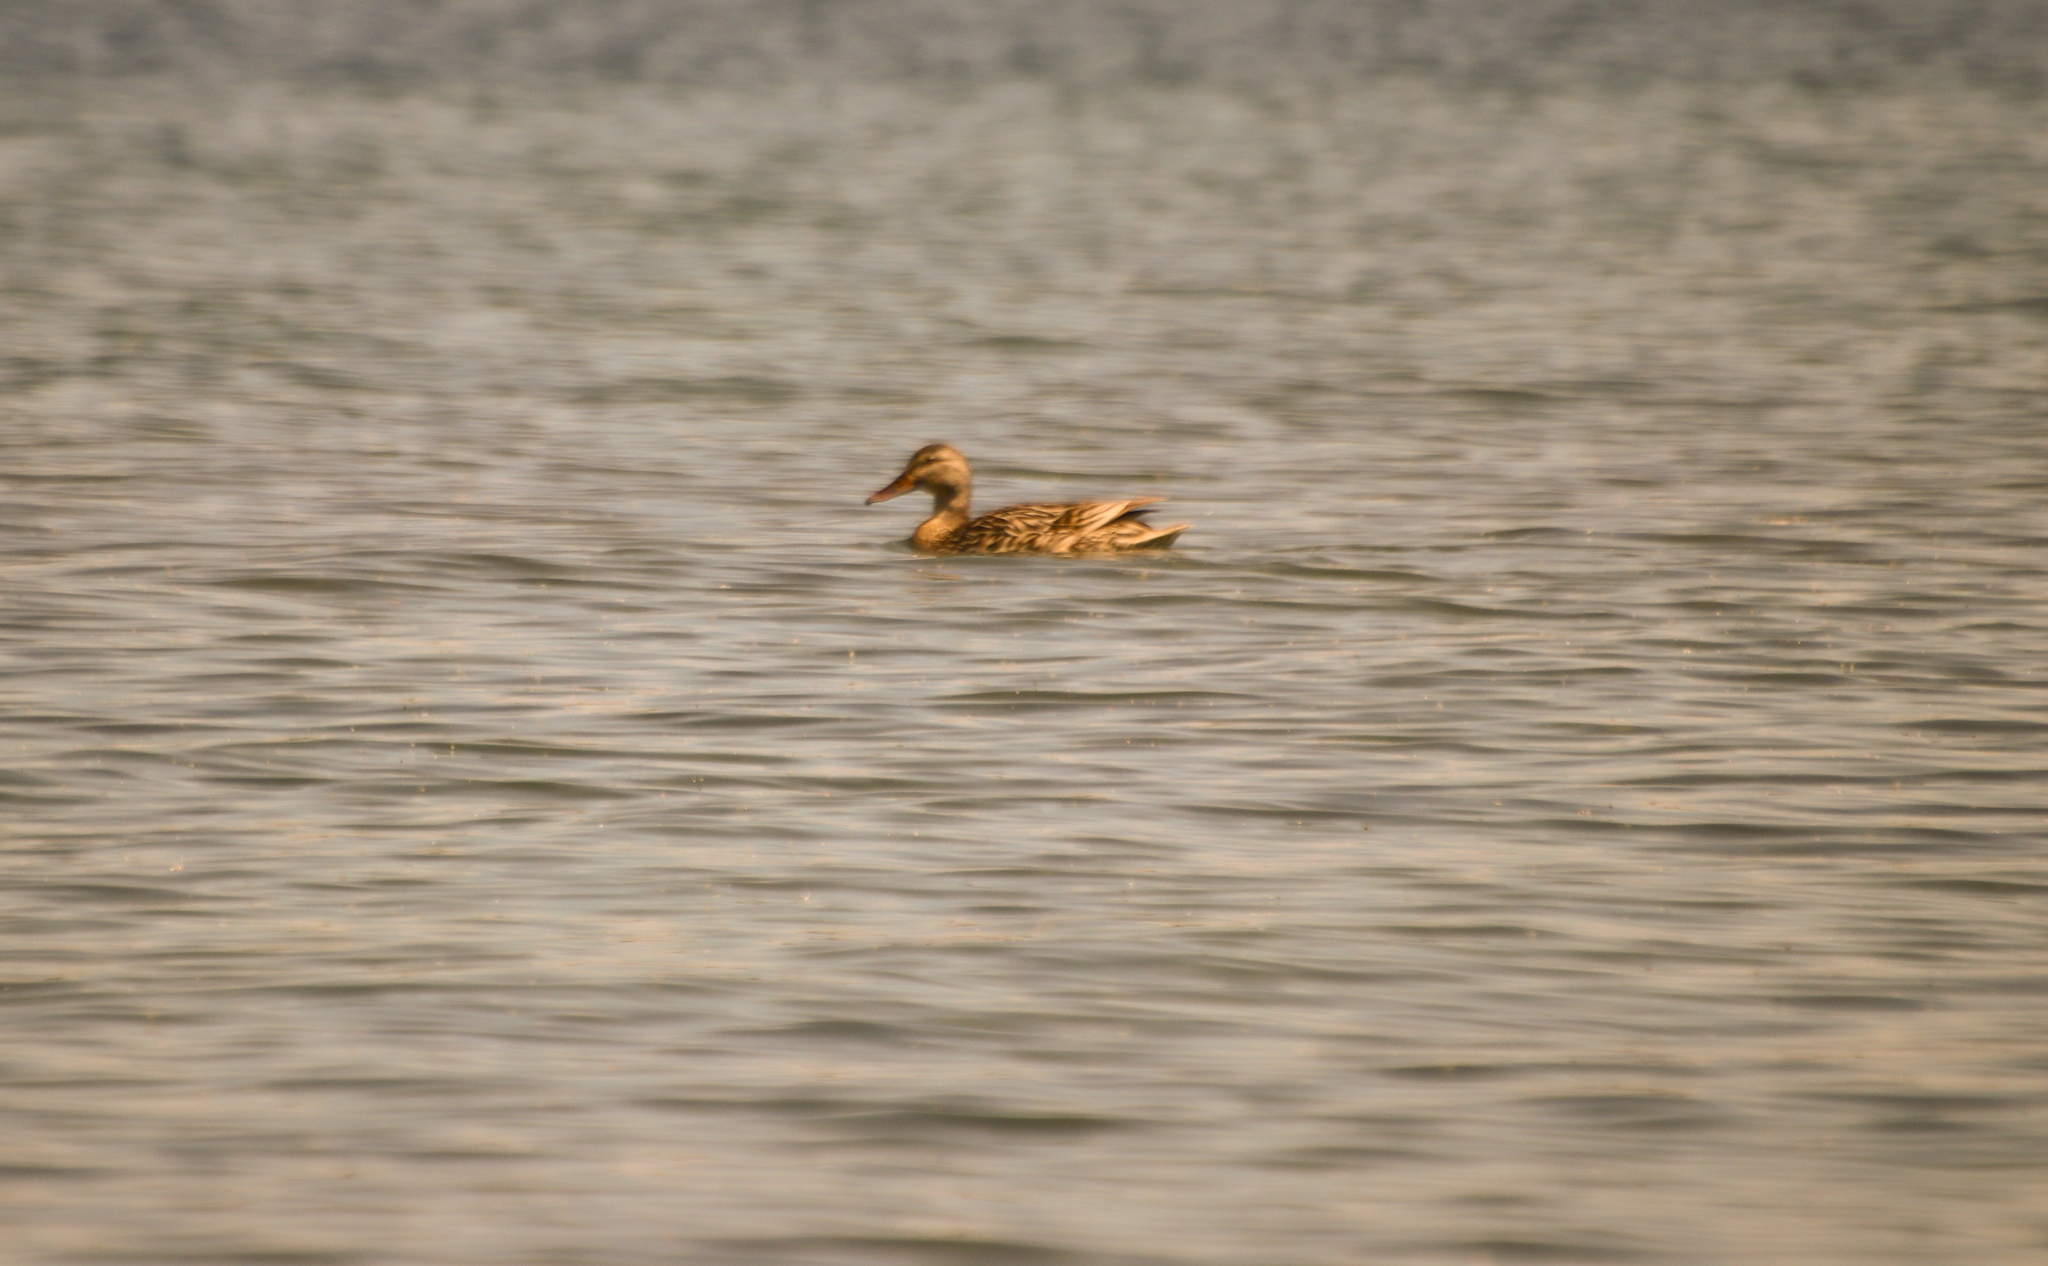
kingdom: Animalia
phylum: Chordata
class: Aves
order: Anseriformes
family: Anatidae
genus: Anas
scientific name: Anas platyrhynchos
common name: Mallard
